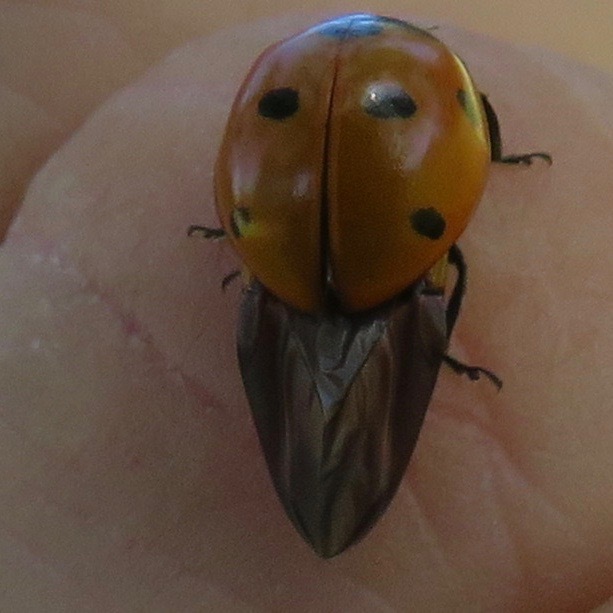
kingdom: Animalia
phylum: Arthropoda
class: Insecta
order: Coleoptera
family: Coccinellidae
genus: Coccinella
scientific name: Coccinella septempunctata
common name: Sevenspotted lady beetle
